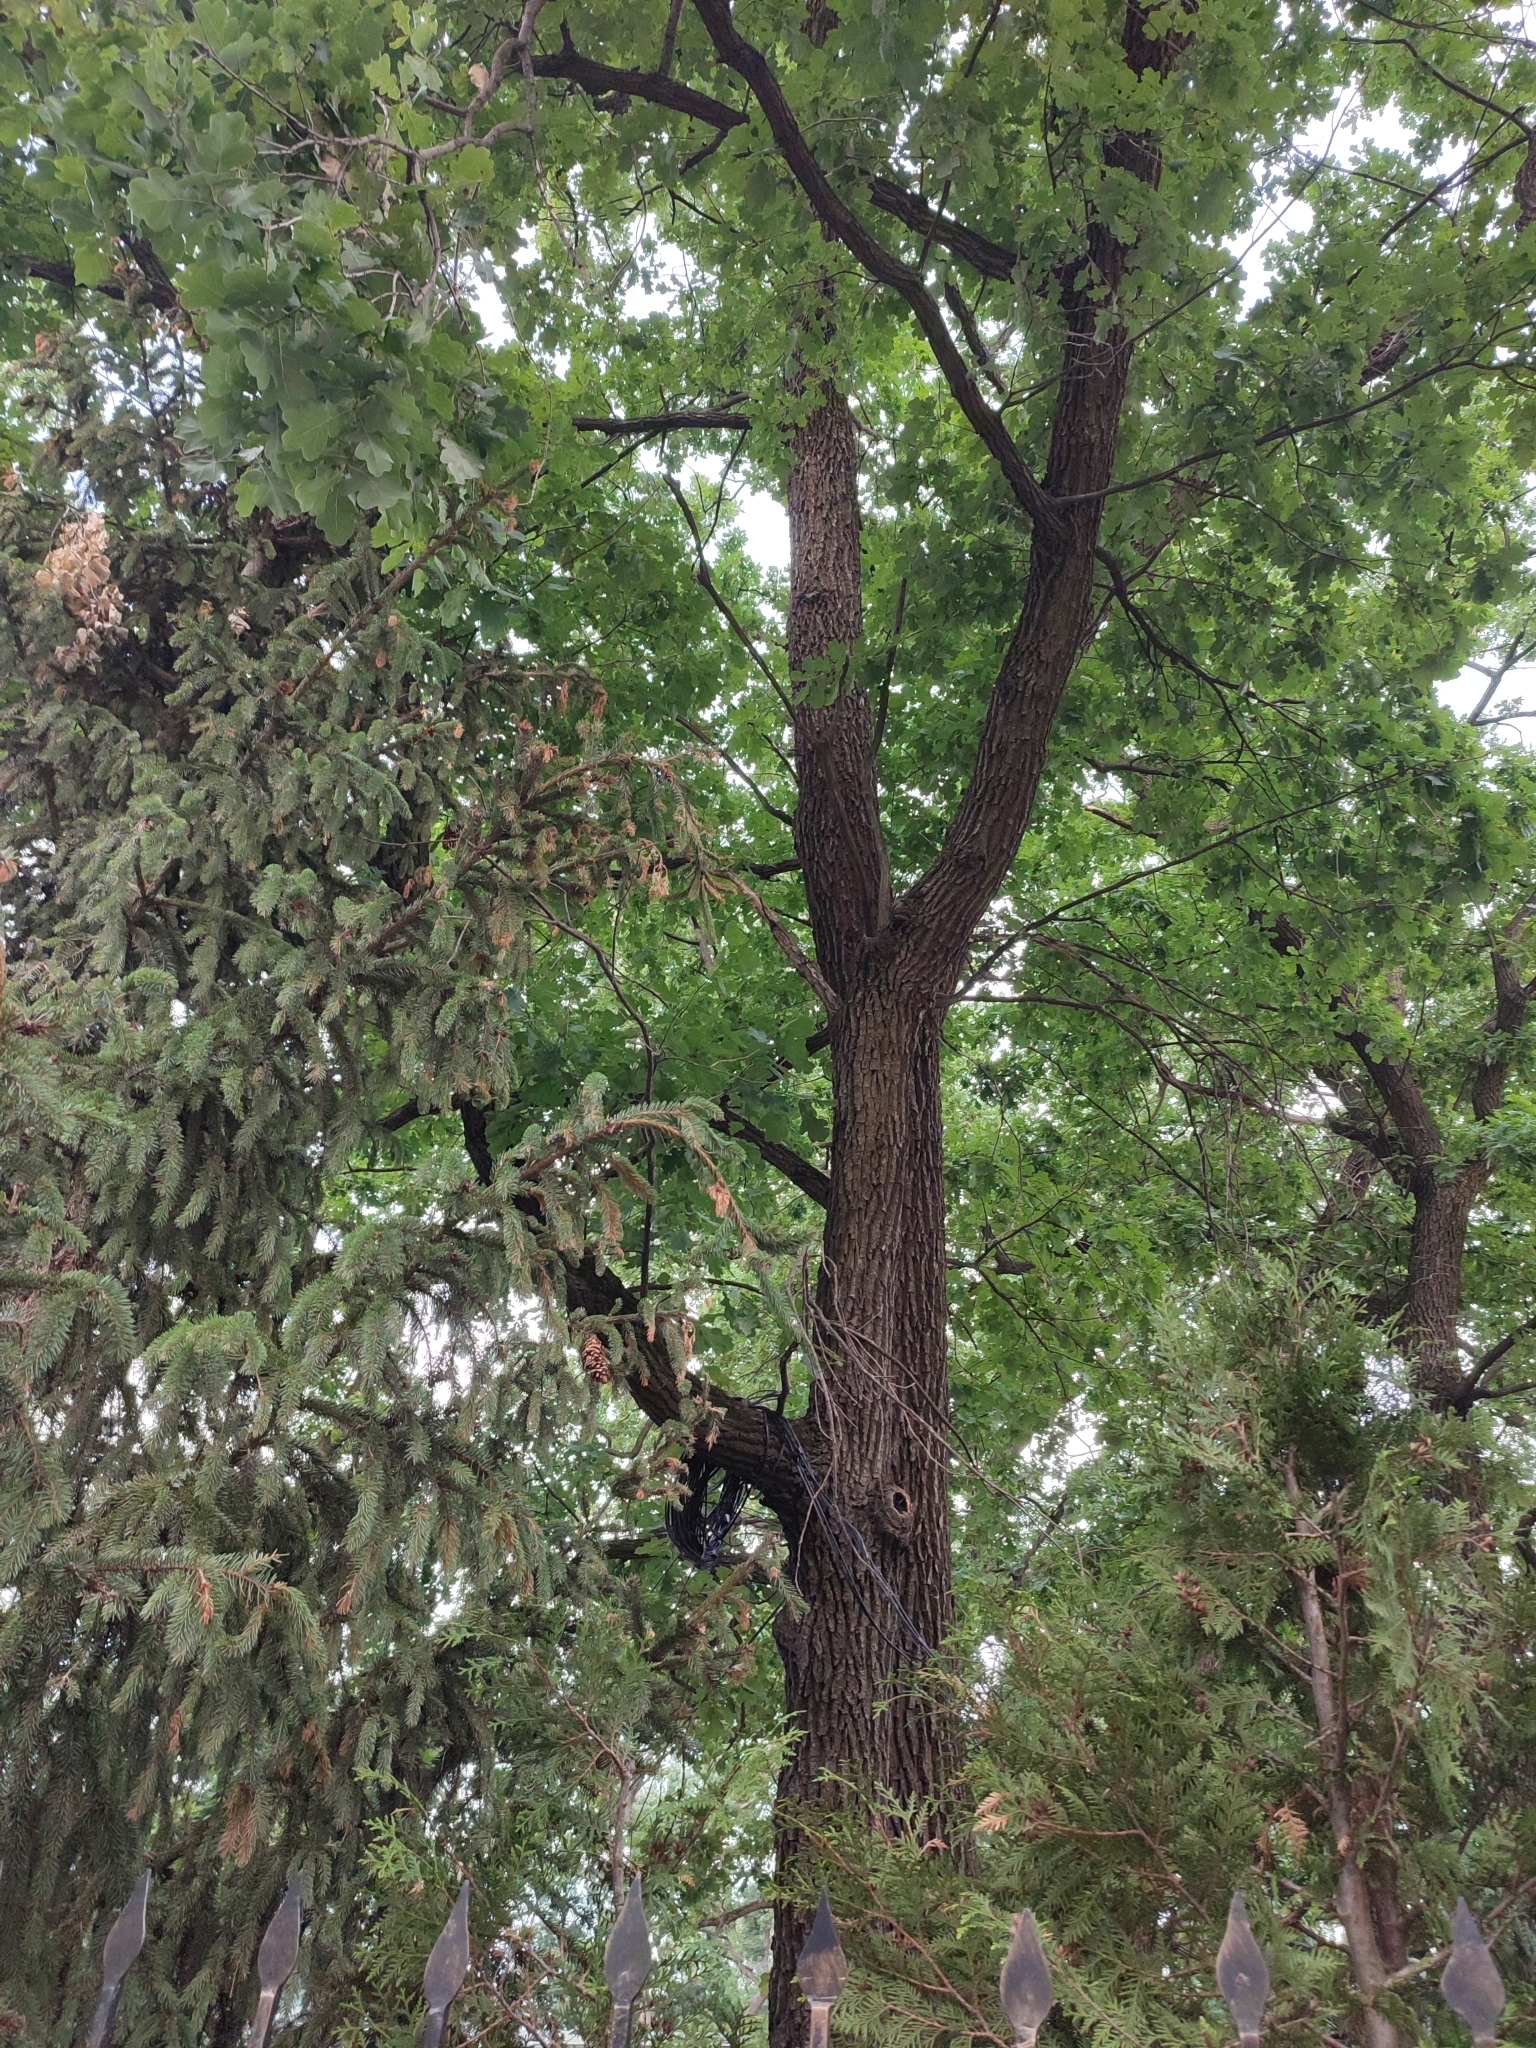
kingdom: Plantae
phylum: Tracheophyta
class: Magnoliopsida
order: Fagales
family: Fagaceae
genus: Quercus
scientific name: Quercus robur
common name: Pedunculate oak
